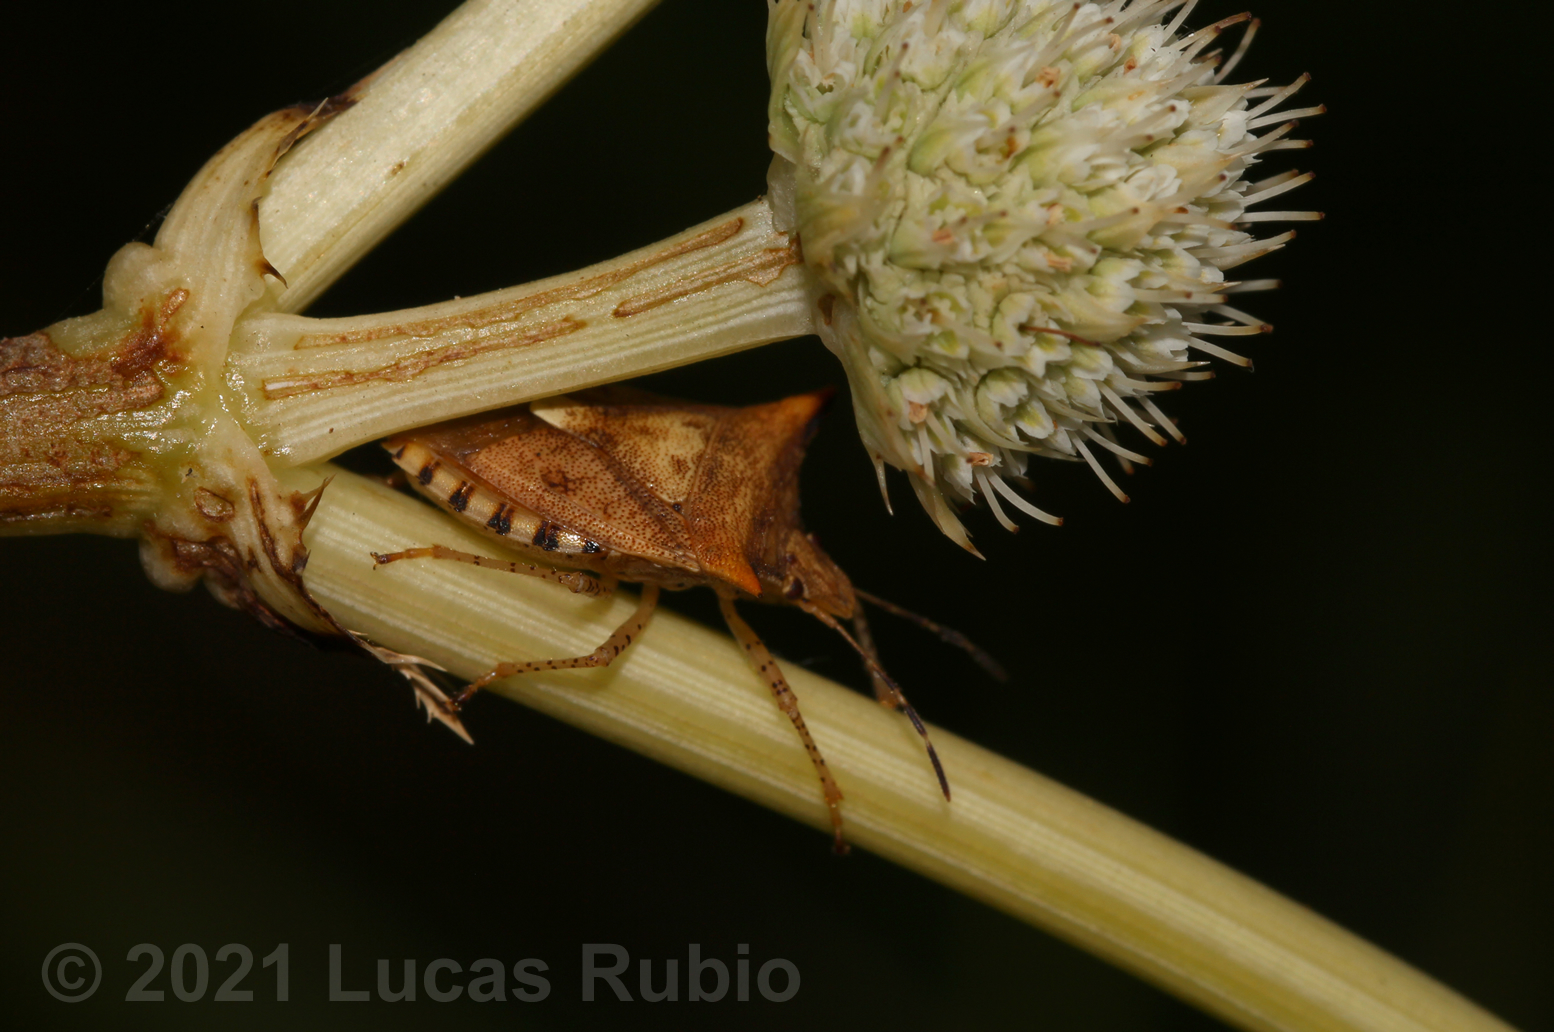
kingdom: Animalia
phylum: Arthropoda
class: Insecta
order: Hemiptera
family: Pentatomidae
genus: Adustonotus
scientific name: Adustonotus
